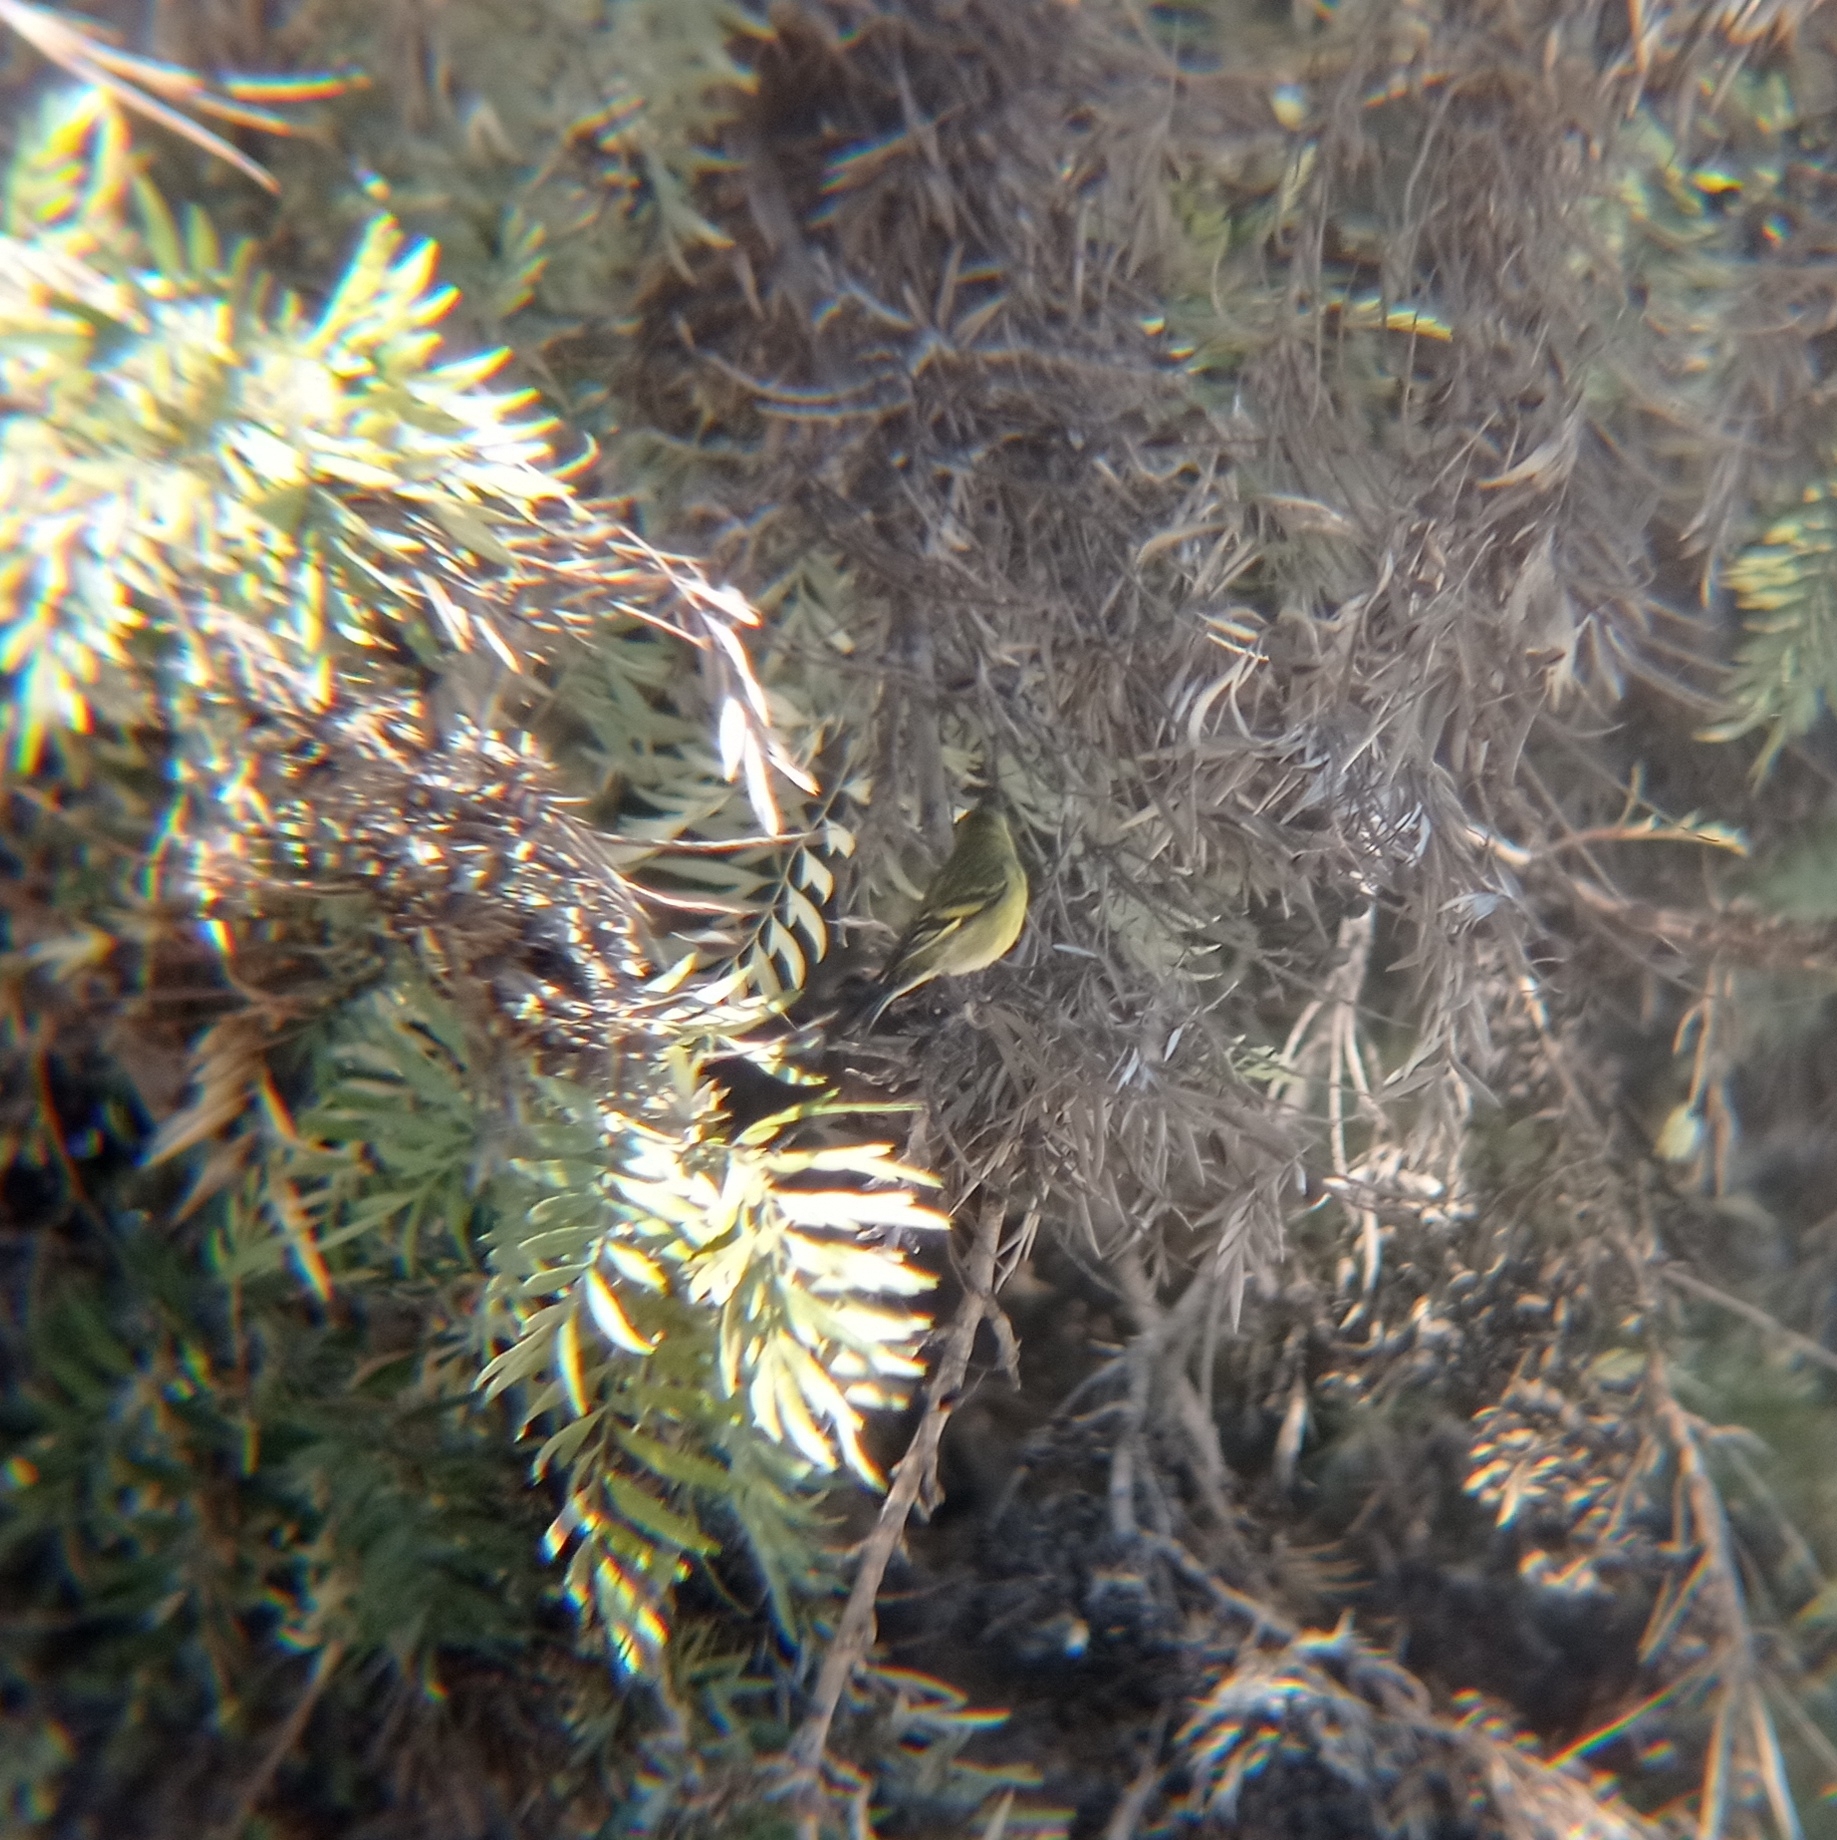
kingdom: Animalia
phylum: Chordata
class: Aves
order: Passeriformes
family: Fringillidae
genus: Spinus
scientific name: Spinus barbatus
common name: Black-chinned siskin
